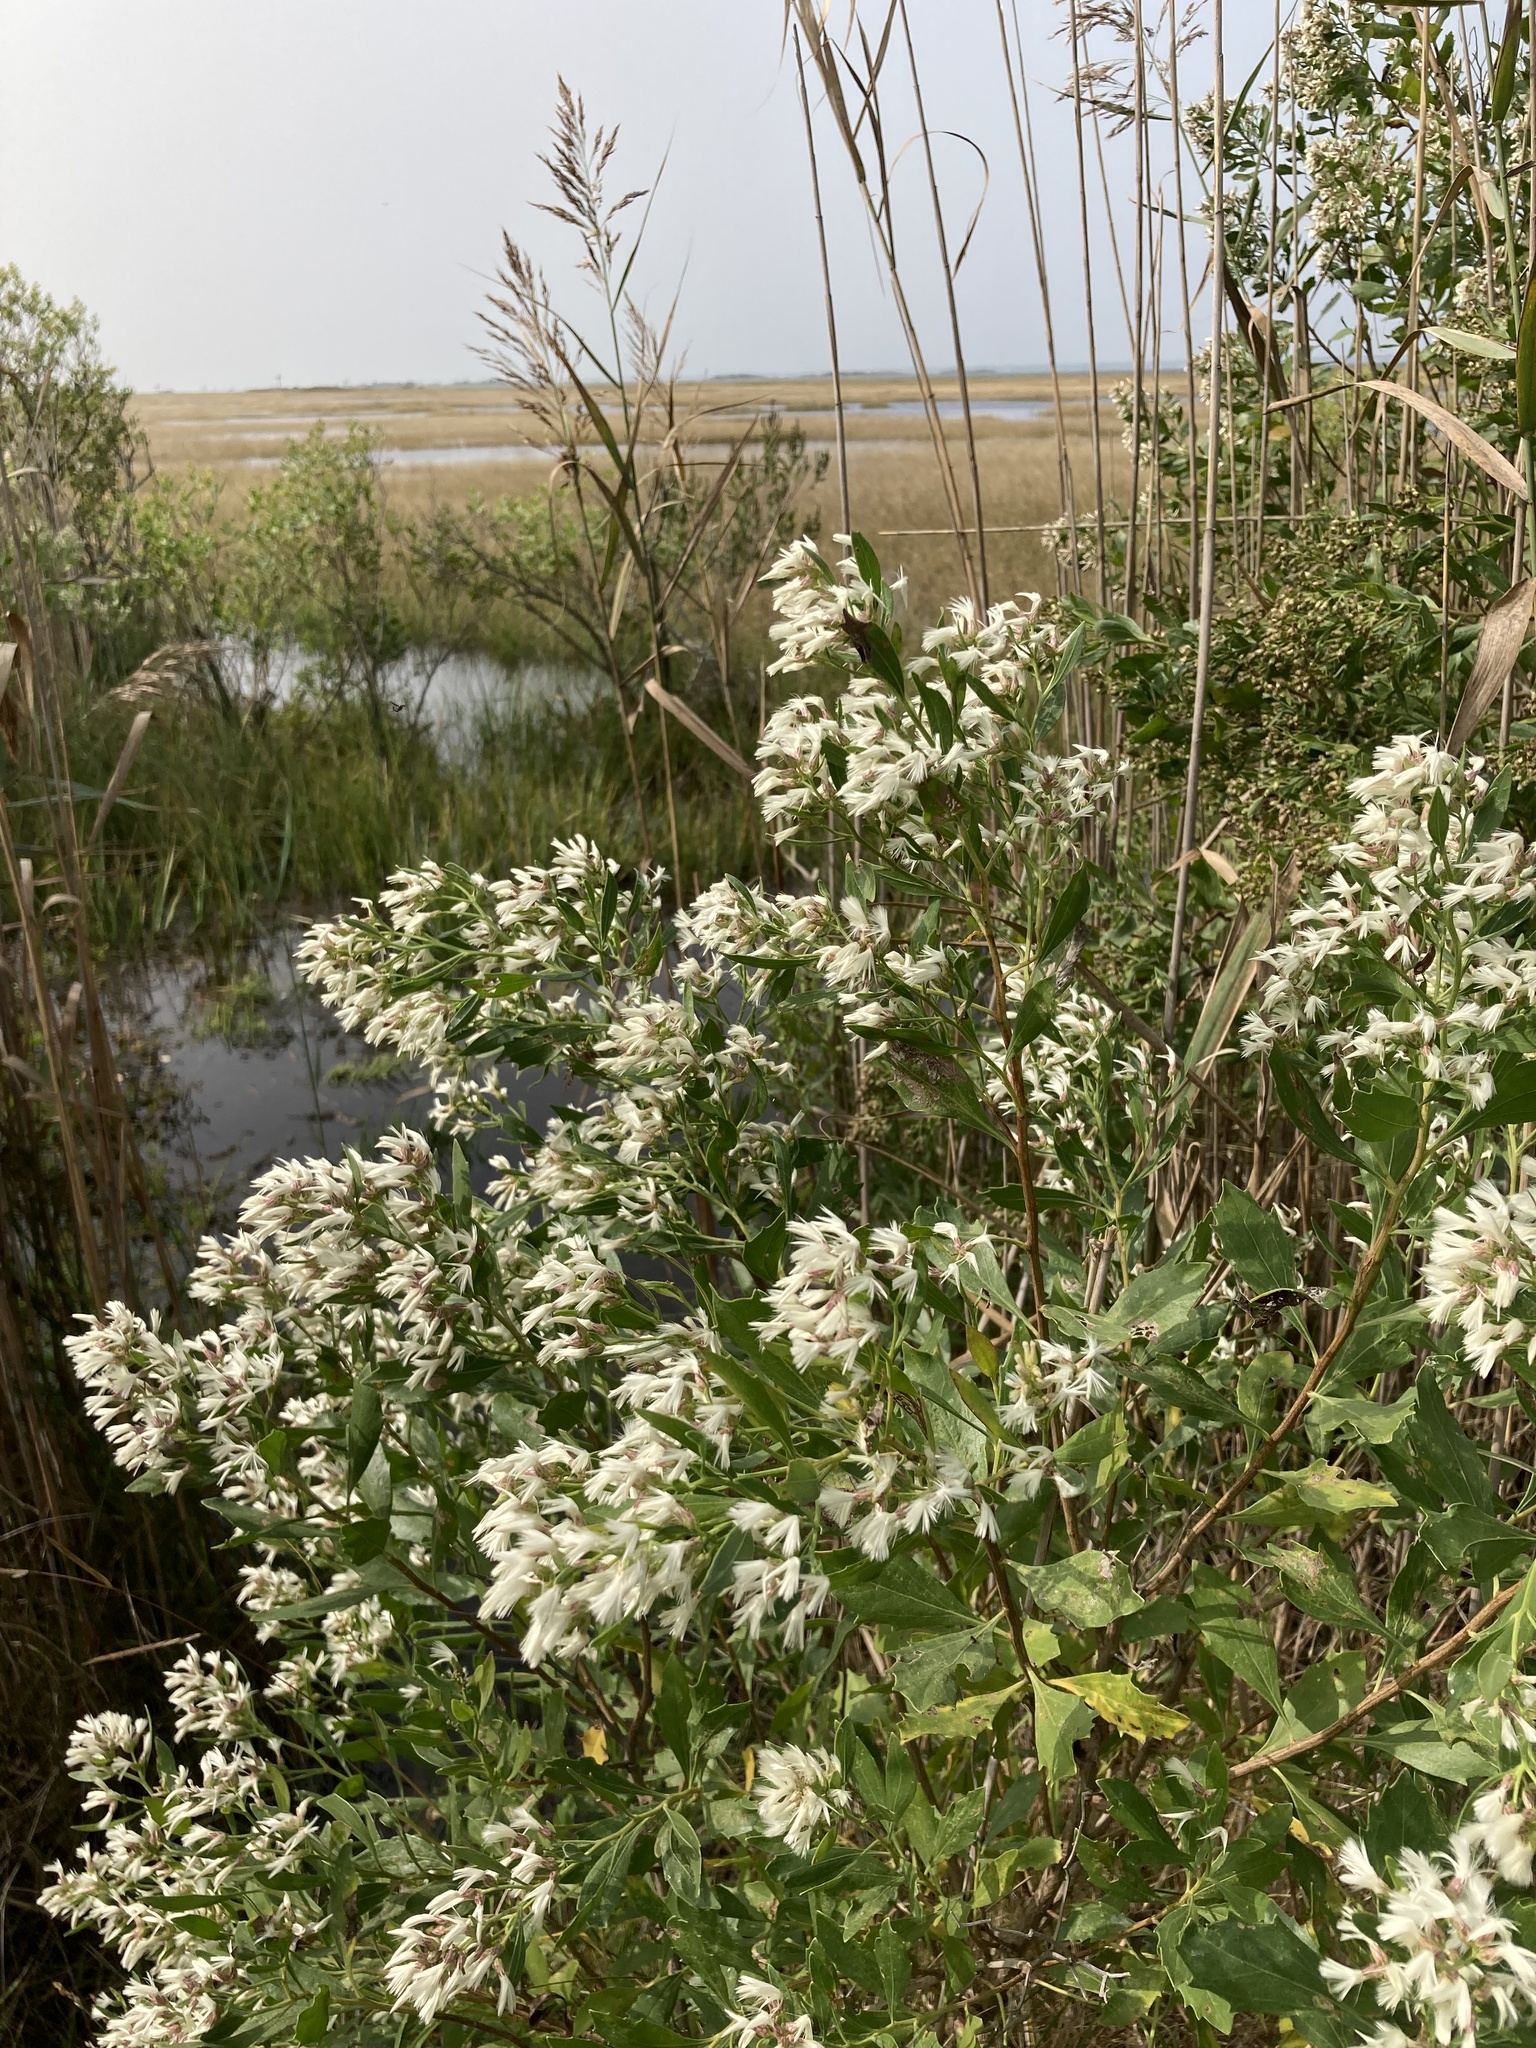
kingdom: Plantae
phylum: Tracheophyta
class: Magnoliopsida
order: Asterales
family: Asteraceae
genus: Baccharis
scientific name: Baccharis halimifolia
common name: Eastern baccharis
